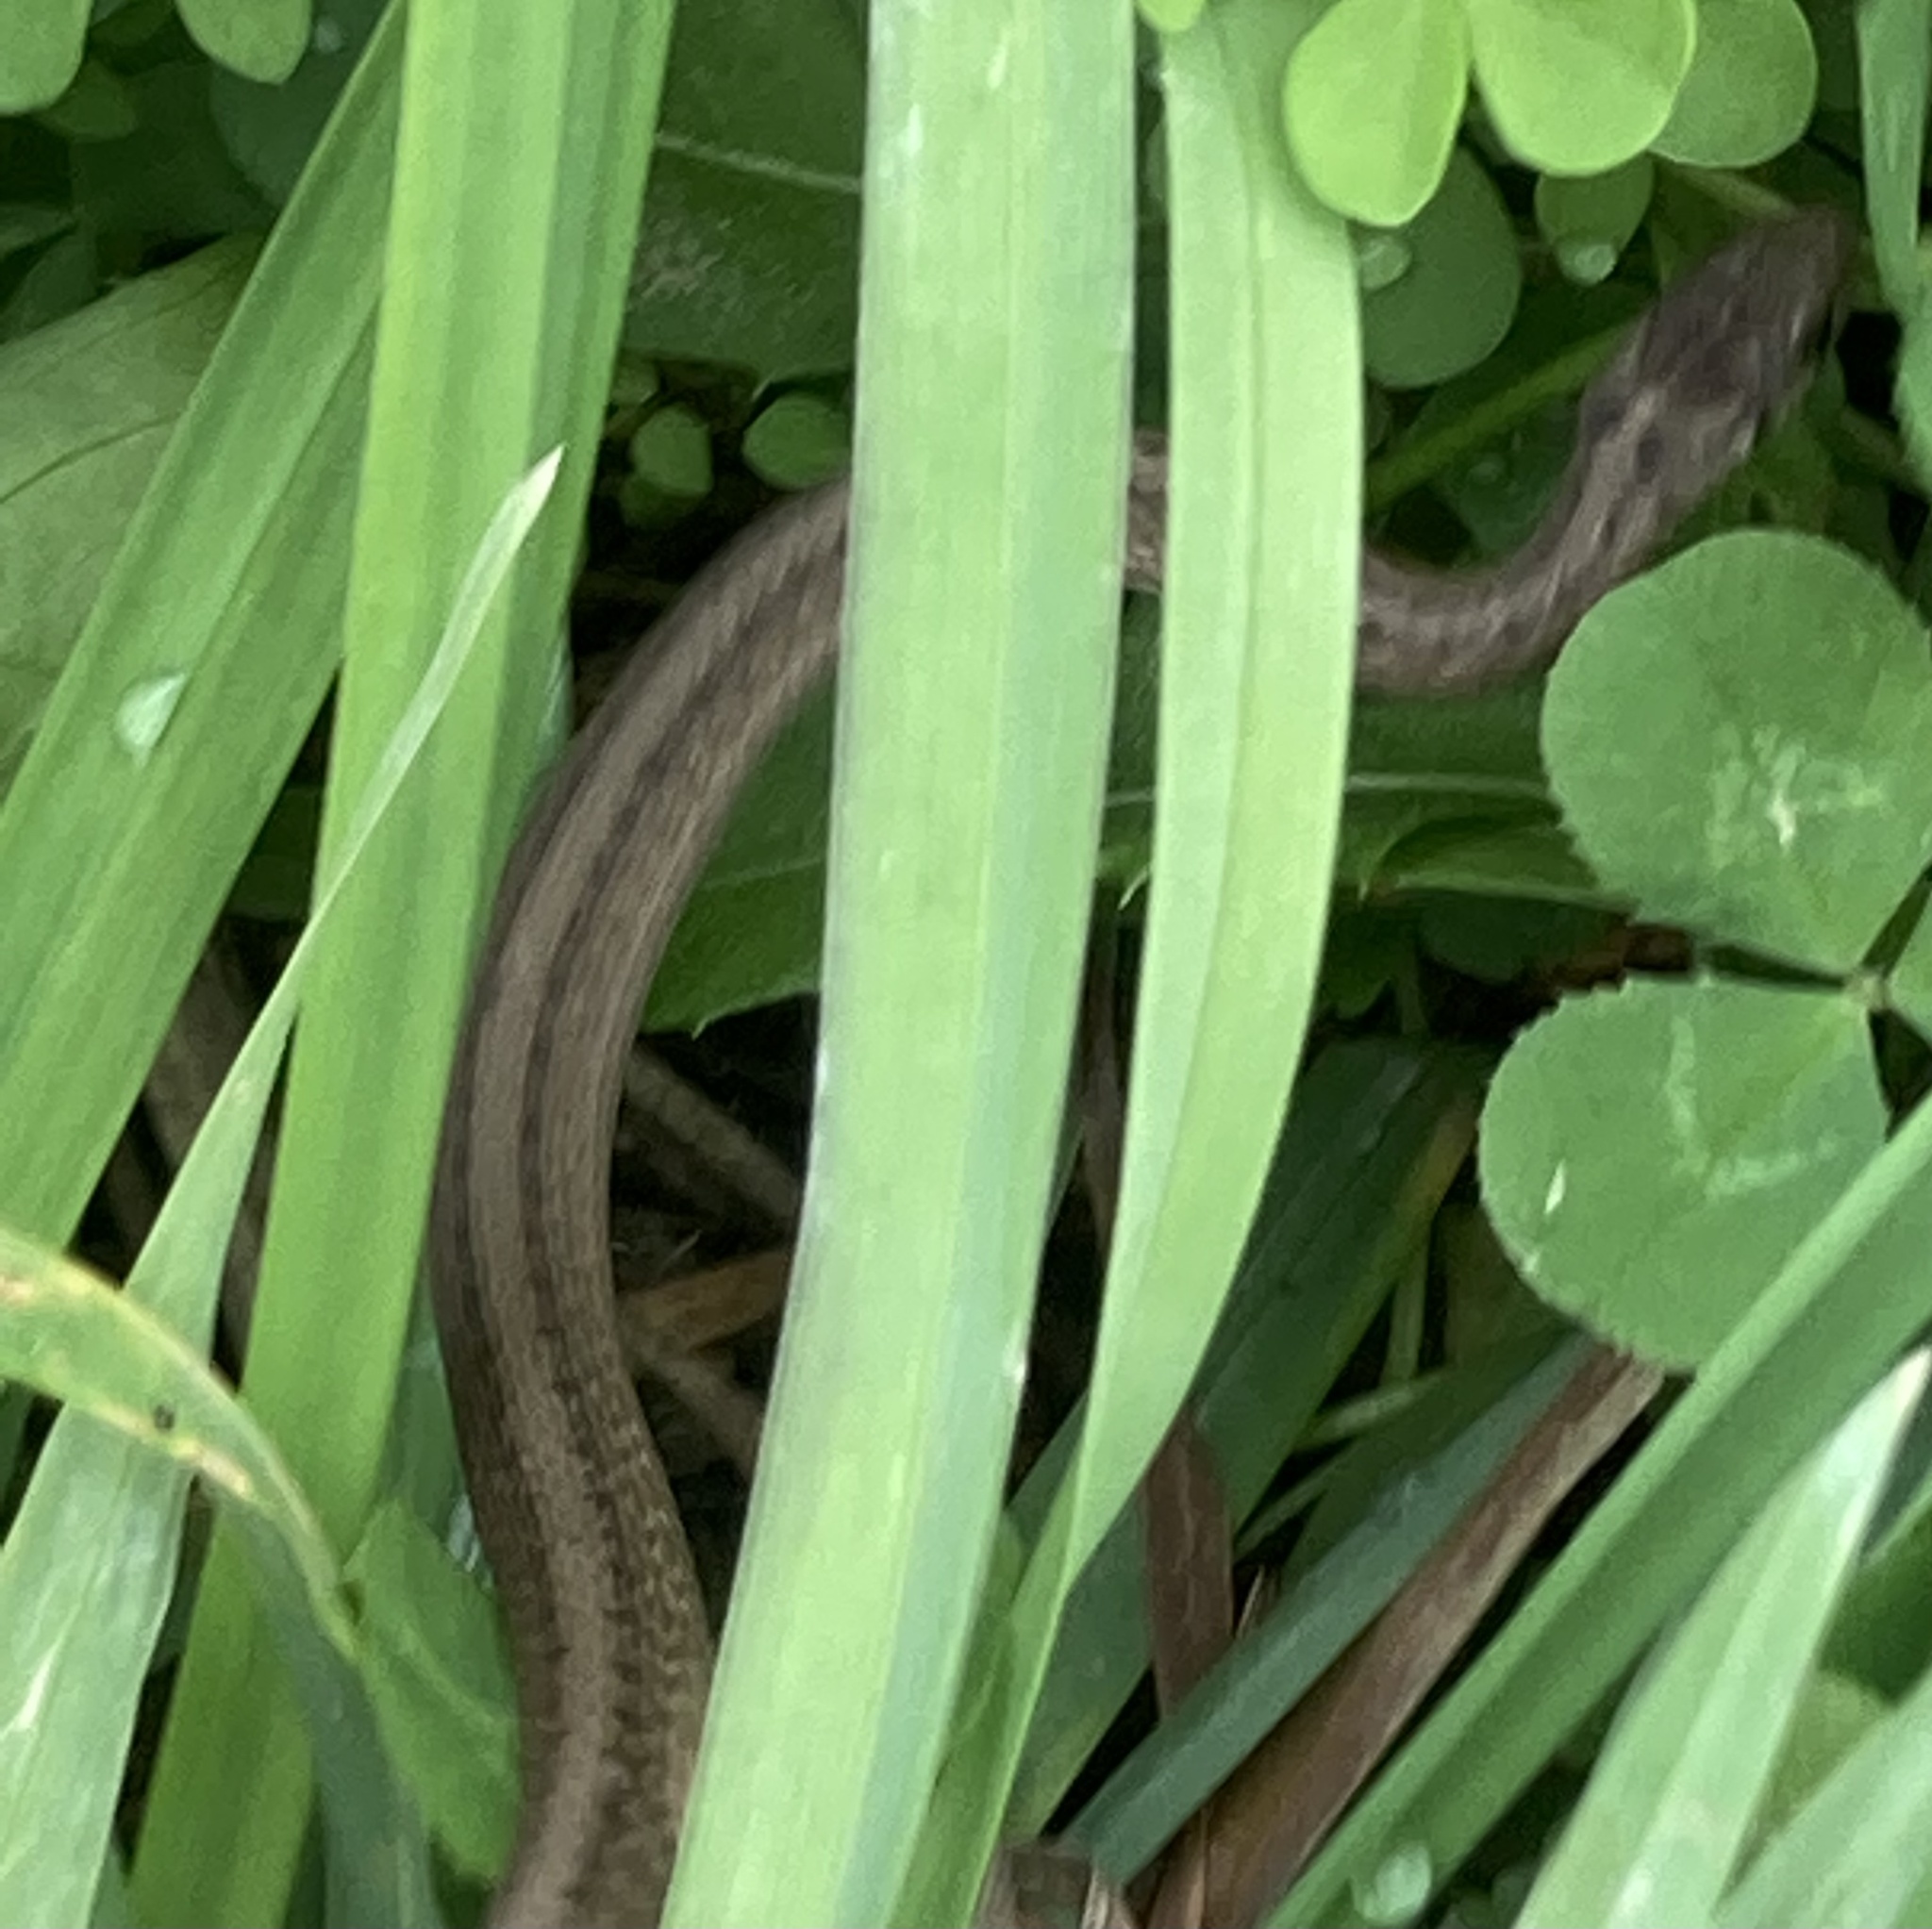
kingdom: Animalia
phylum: Chordata
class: Squamata
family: Colubridae
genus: Storeria
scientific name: Storeria dekayi
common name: (dekay’s) brown snake
